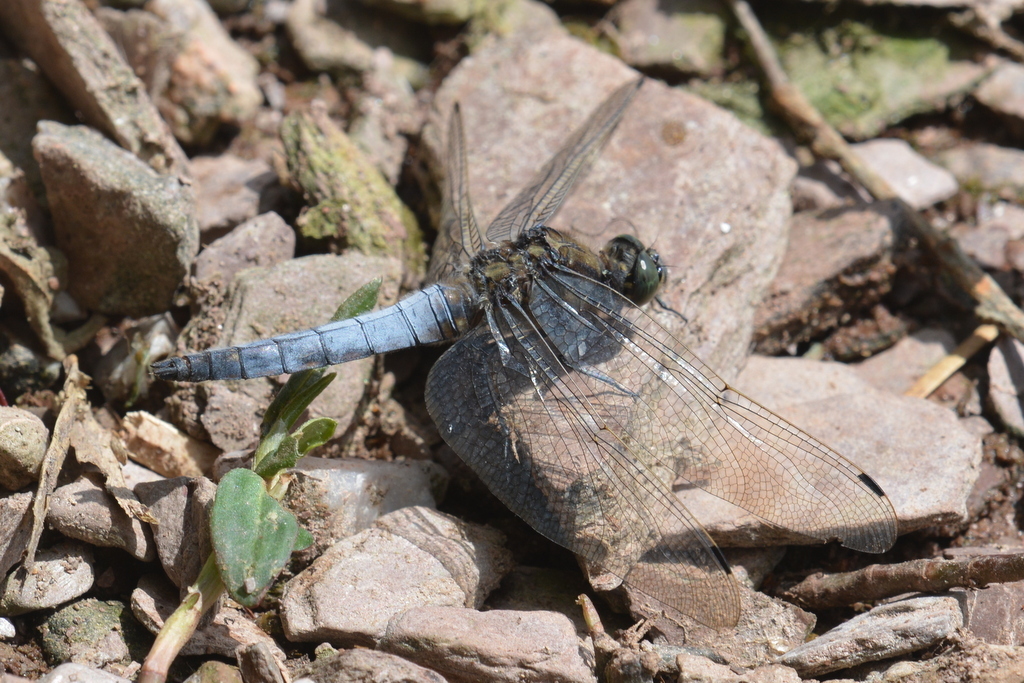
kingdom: Animalia
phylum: Arthropoda
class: Insecta
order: Odonata
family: Libellulidae
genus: Orthetrum
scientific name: Orthetrum cancellatum
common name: Black-tailed skimmer
